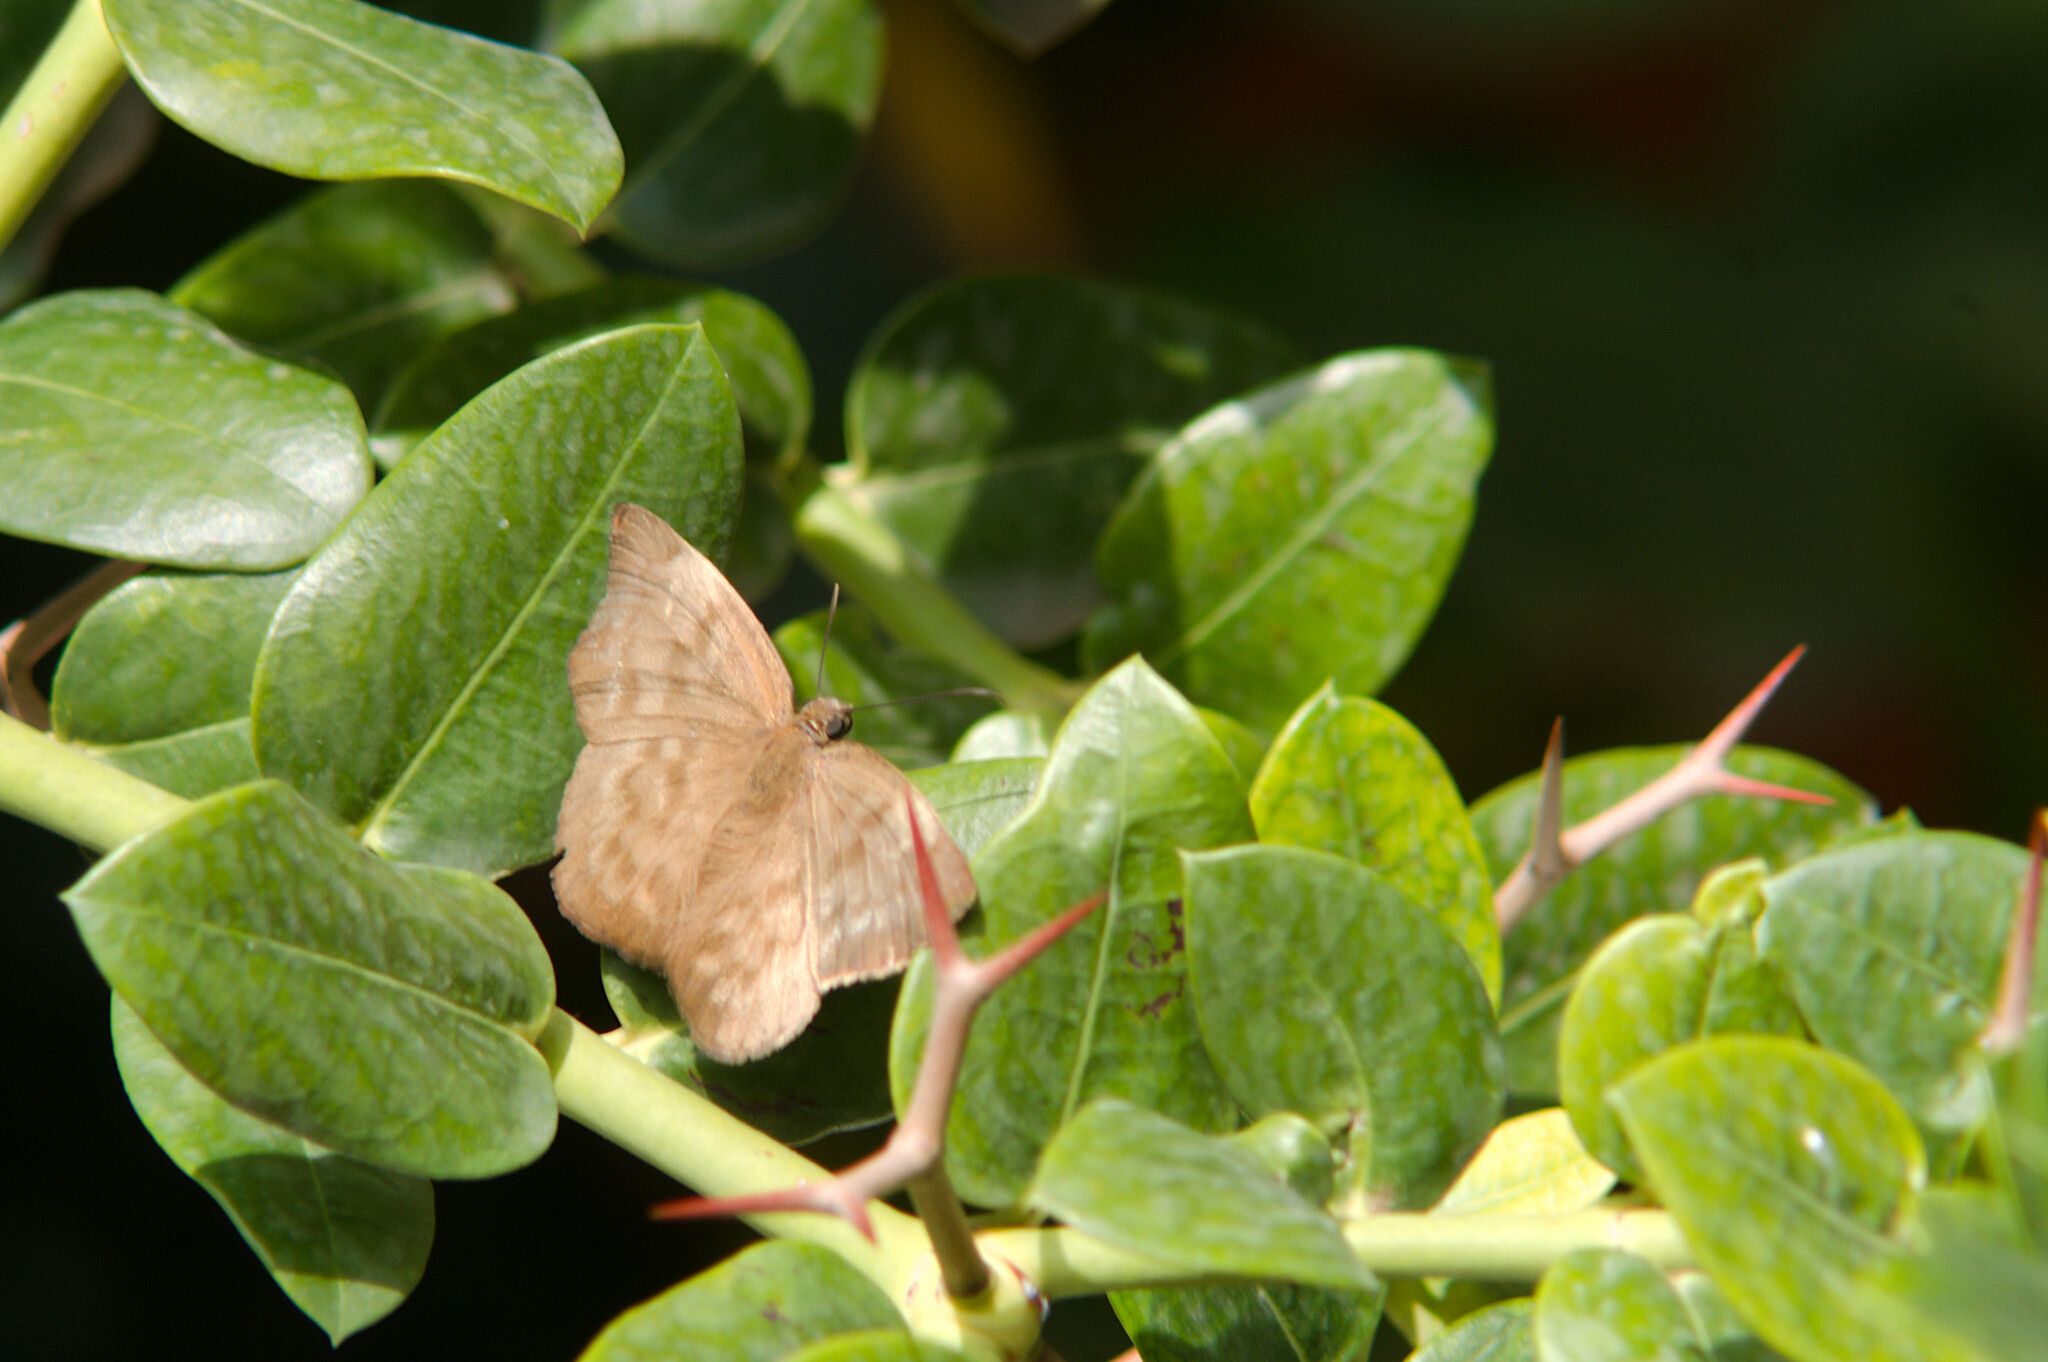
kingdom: Animalia
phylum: Arthropoda
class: Insecta
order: Lepidoptera
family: Hesperiidae
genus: Achlyodes
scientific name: Achlyodes pallida
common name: Pale sicklewing
